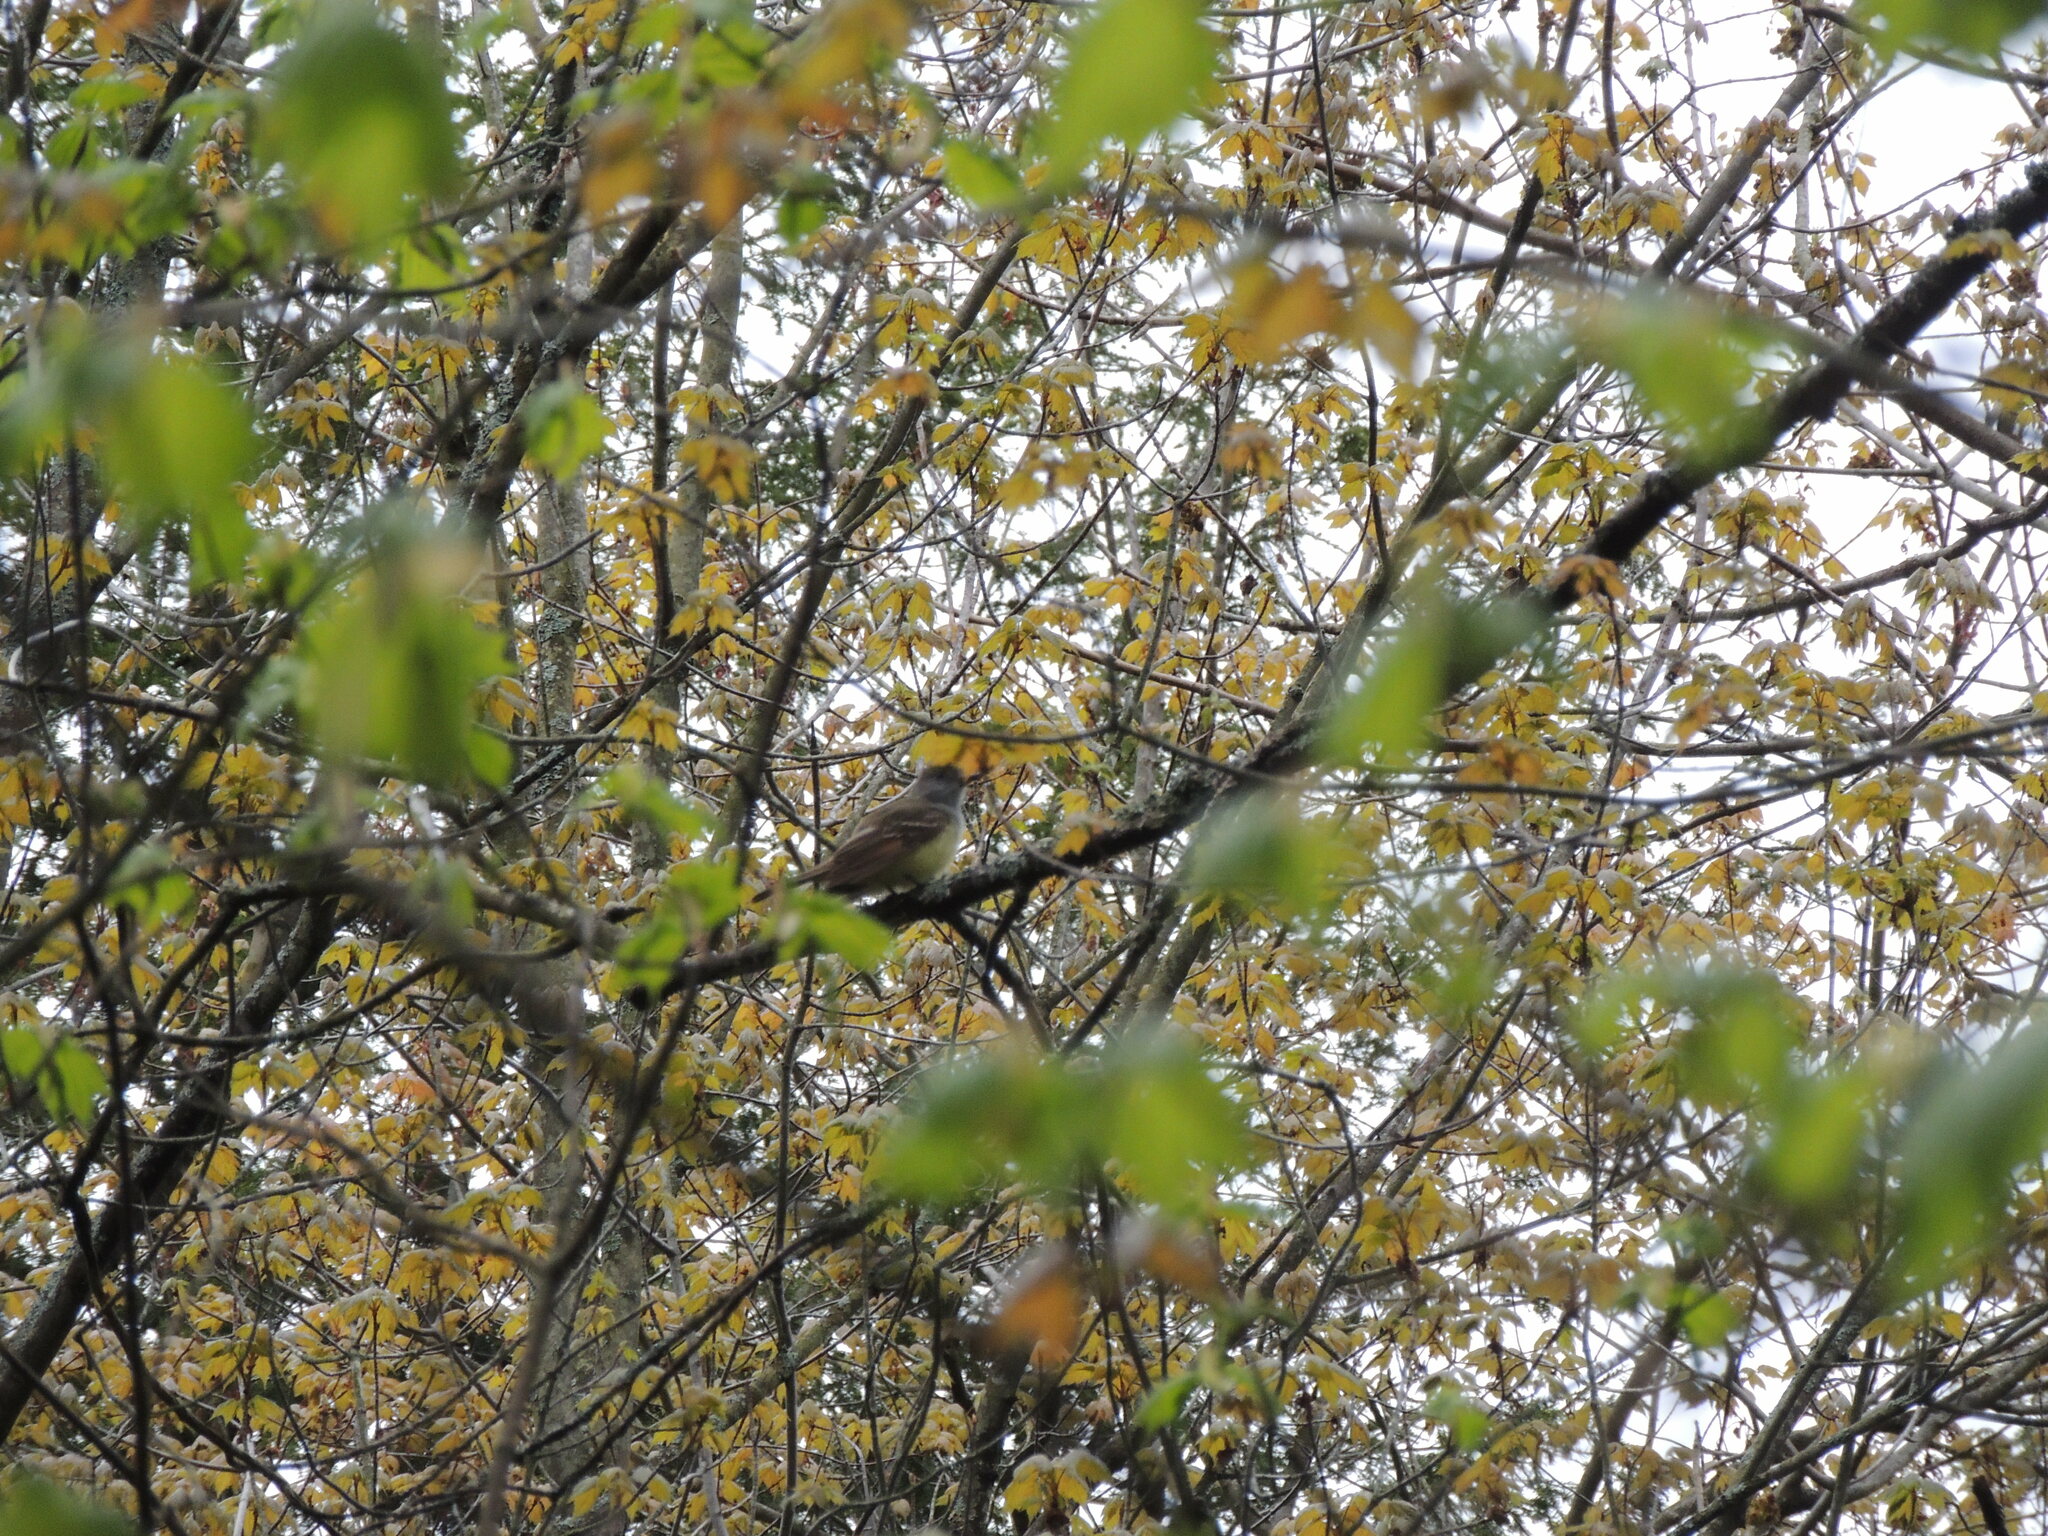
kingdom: Animalia
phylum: Chordata
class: Aves
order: Passeriformes
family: Tyrannidae
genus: Myiarchus
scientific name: Myiarchus crinitus
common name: Great crested flycatcher
